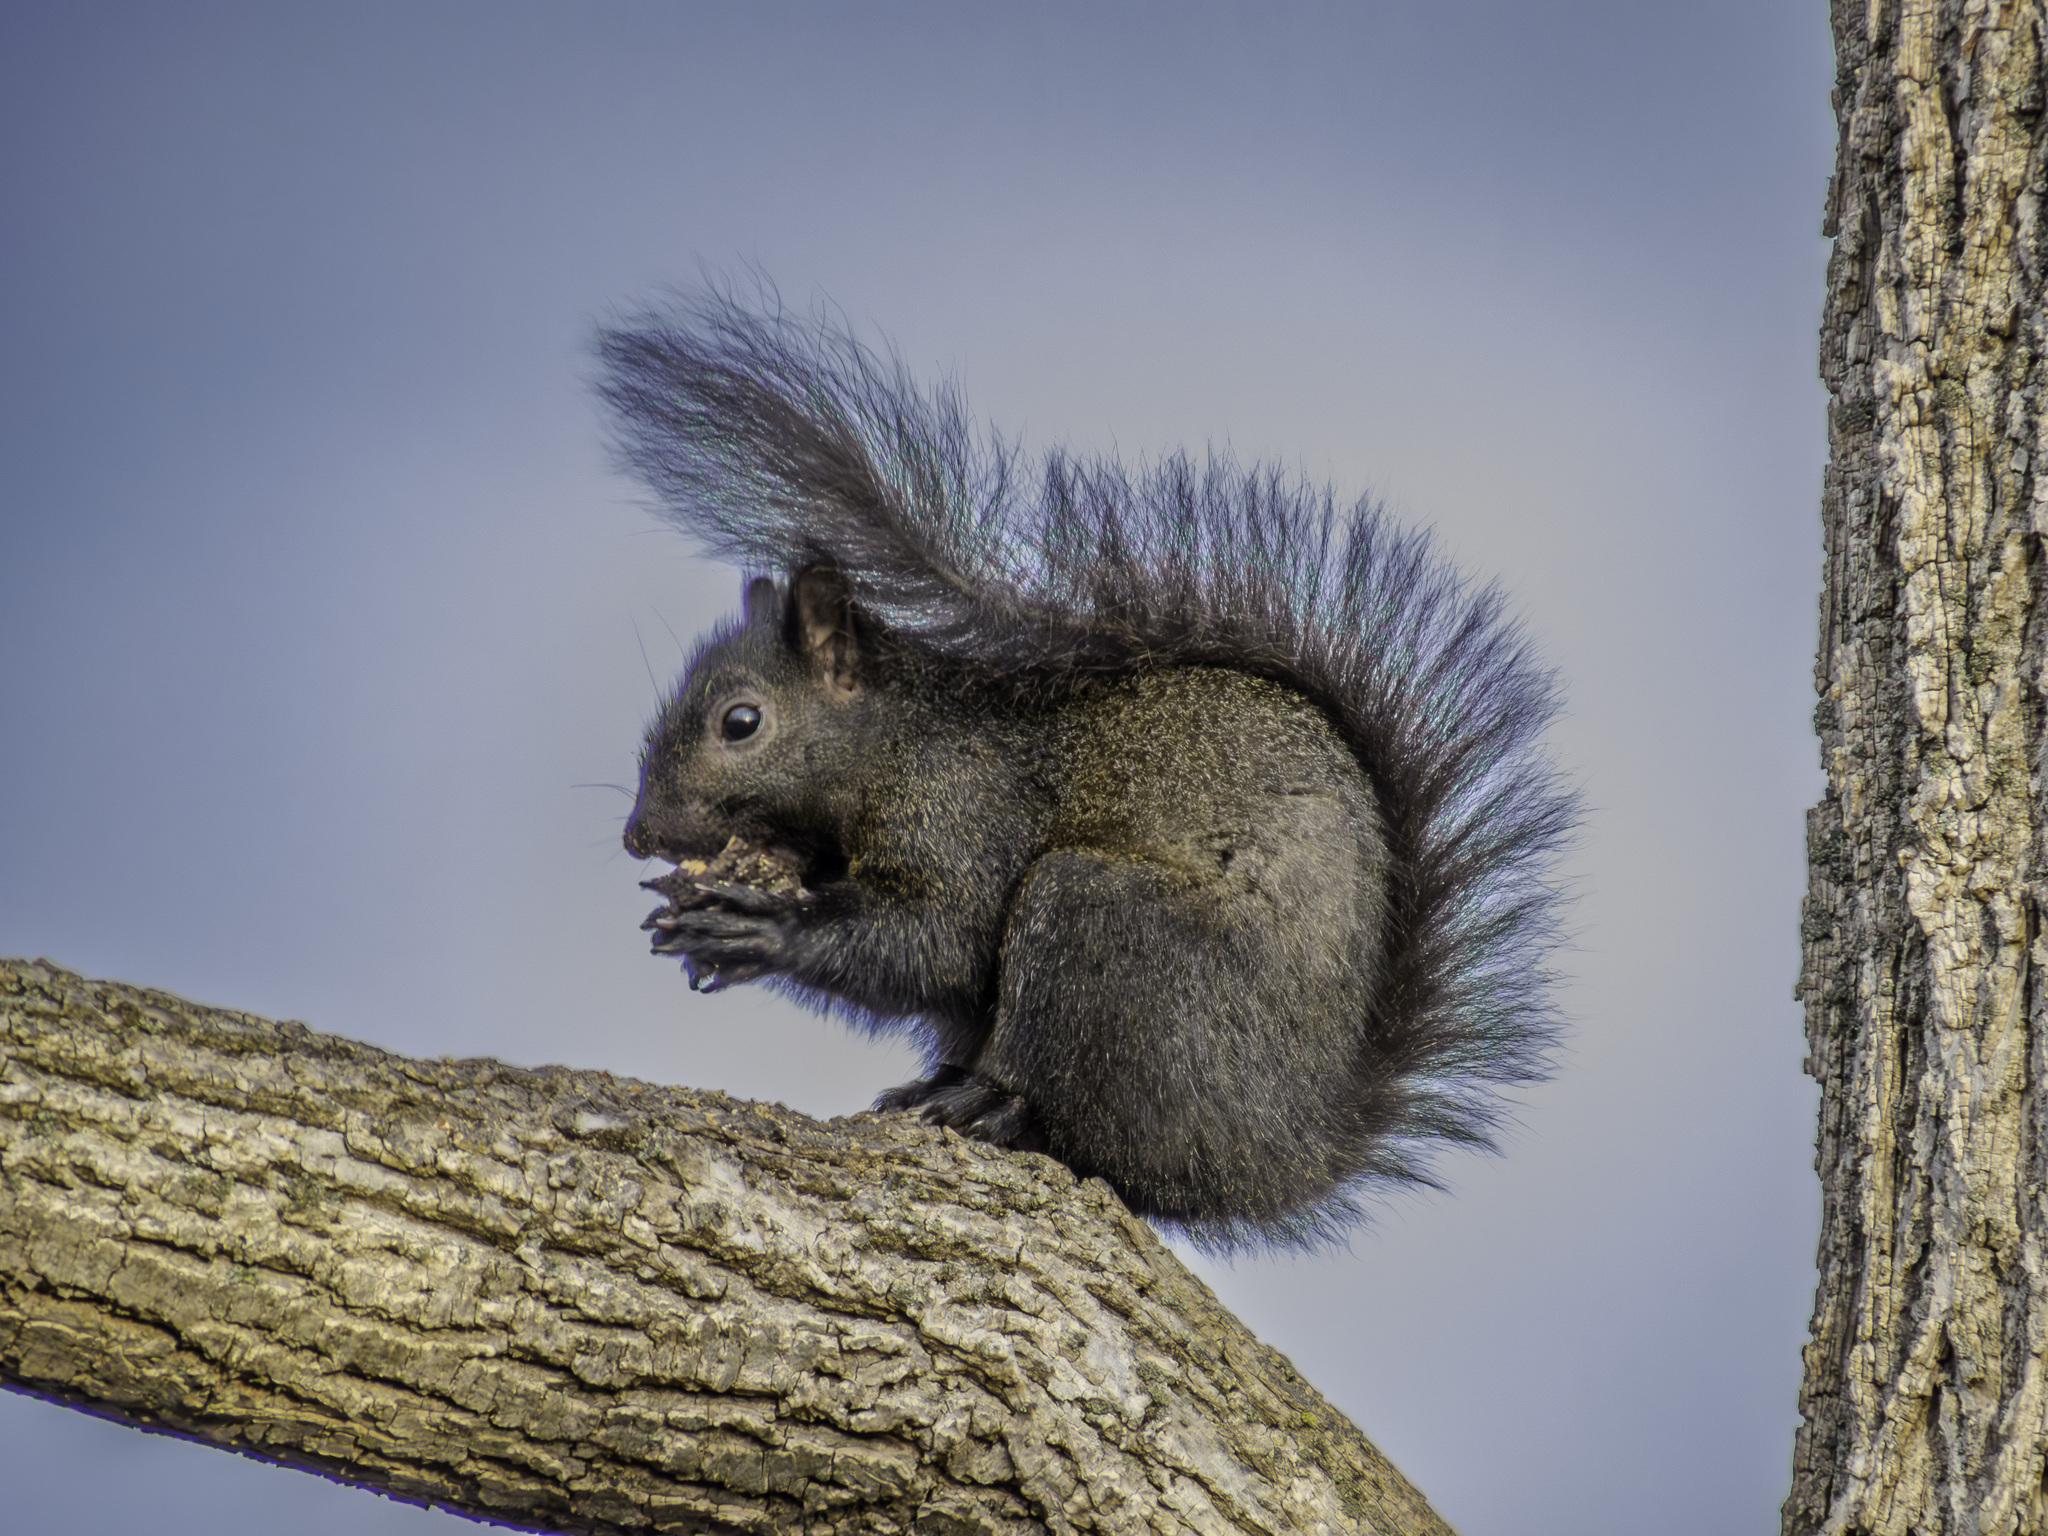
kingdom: Animalia
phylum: Chordata
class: Mammalia
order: Rodentia
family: Sciuridae
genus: Sciurus
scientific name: Sciurus carolinensis
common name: Eastern gray squirrel
